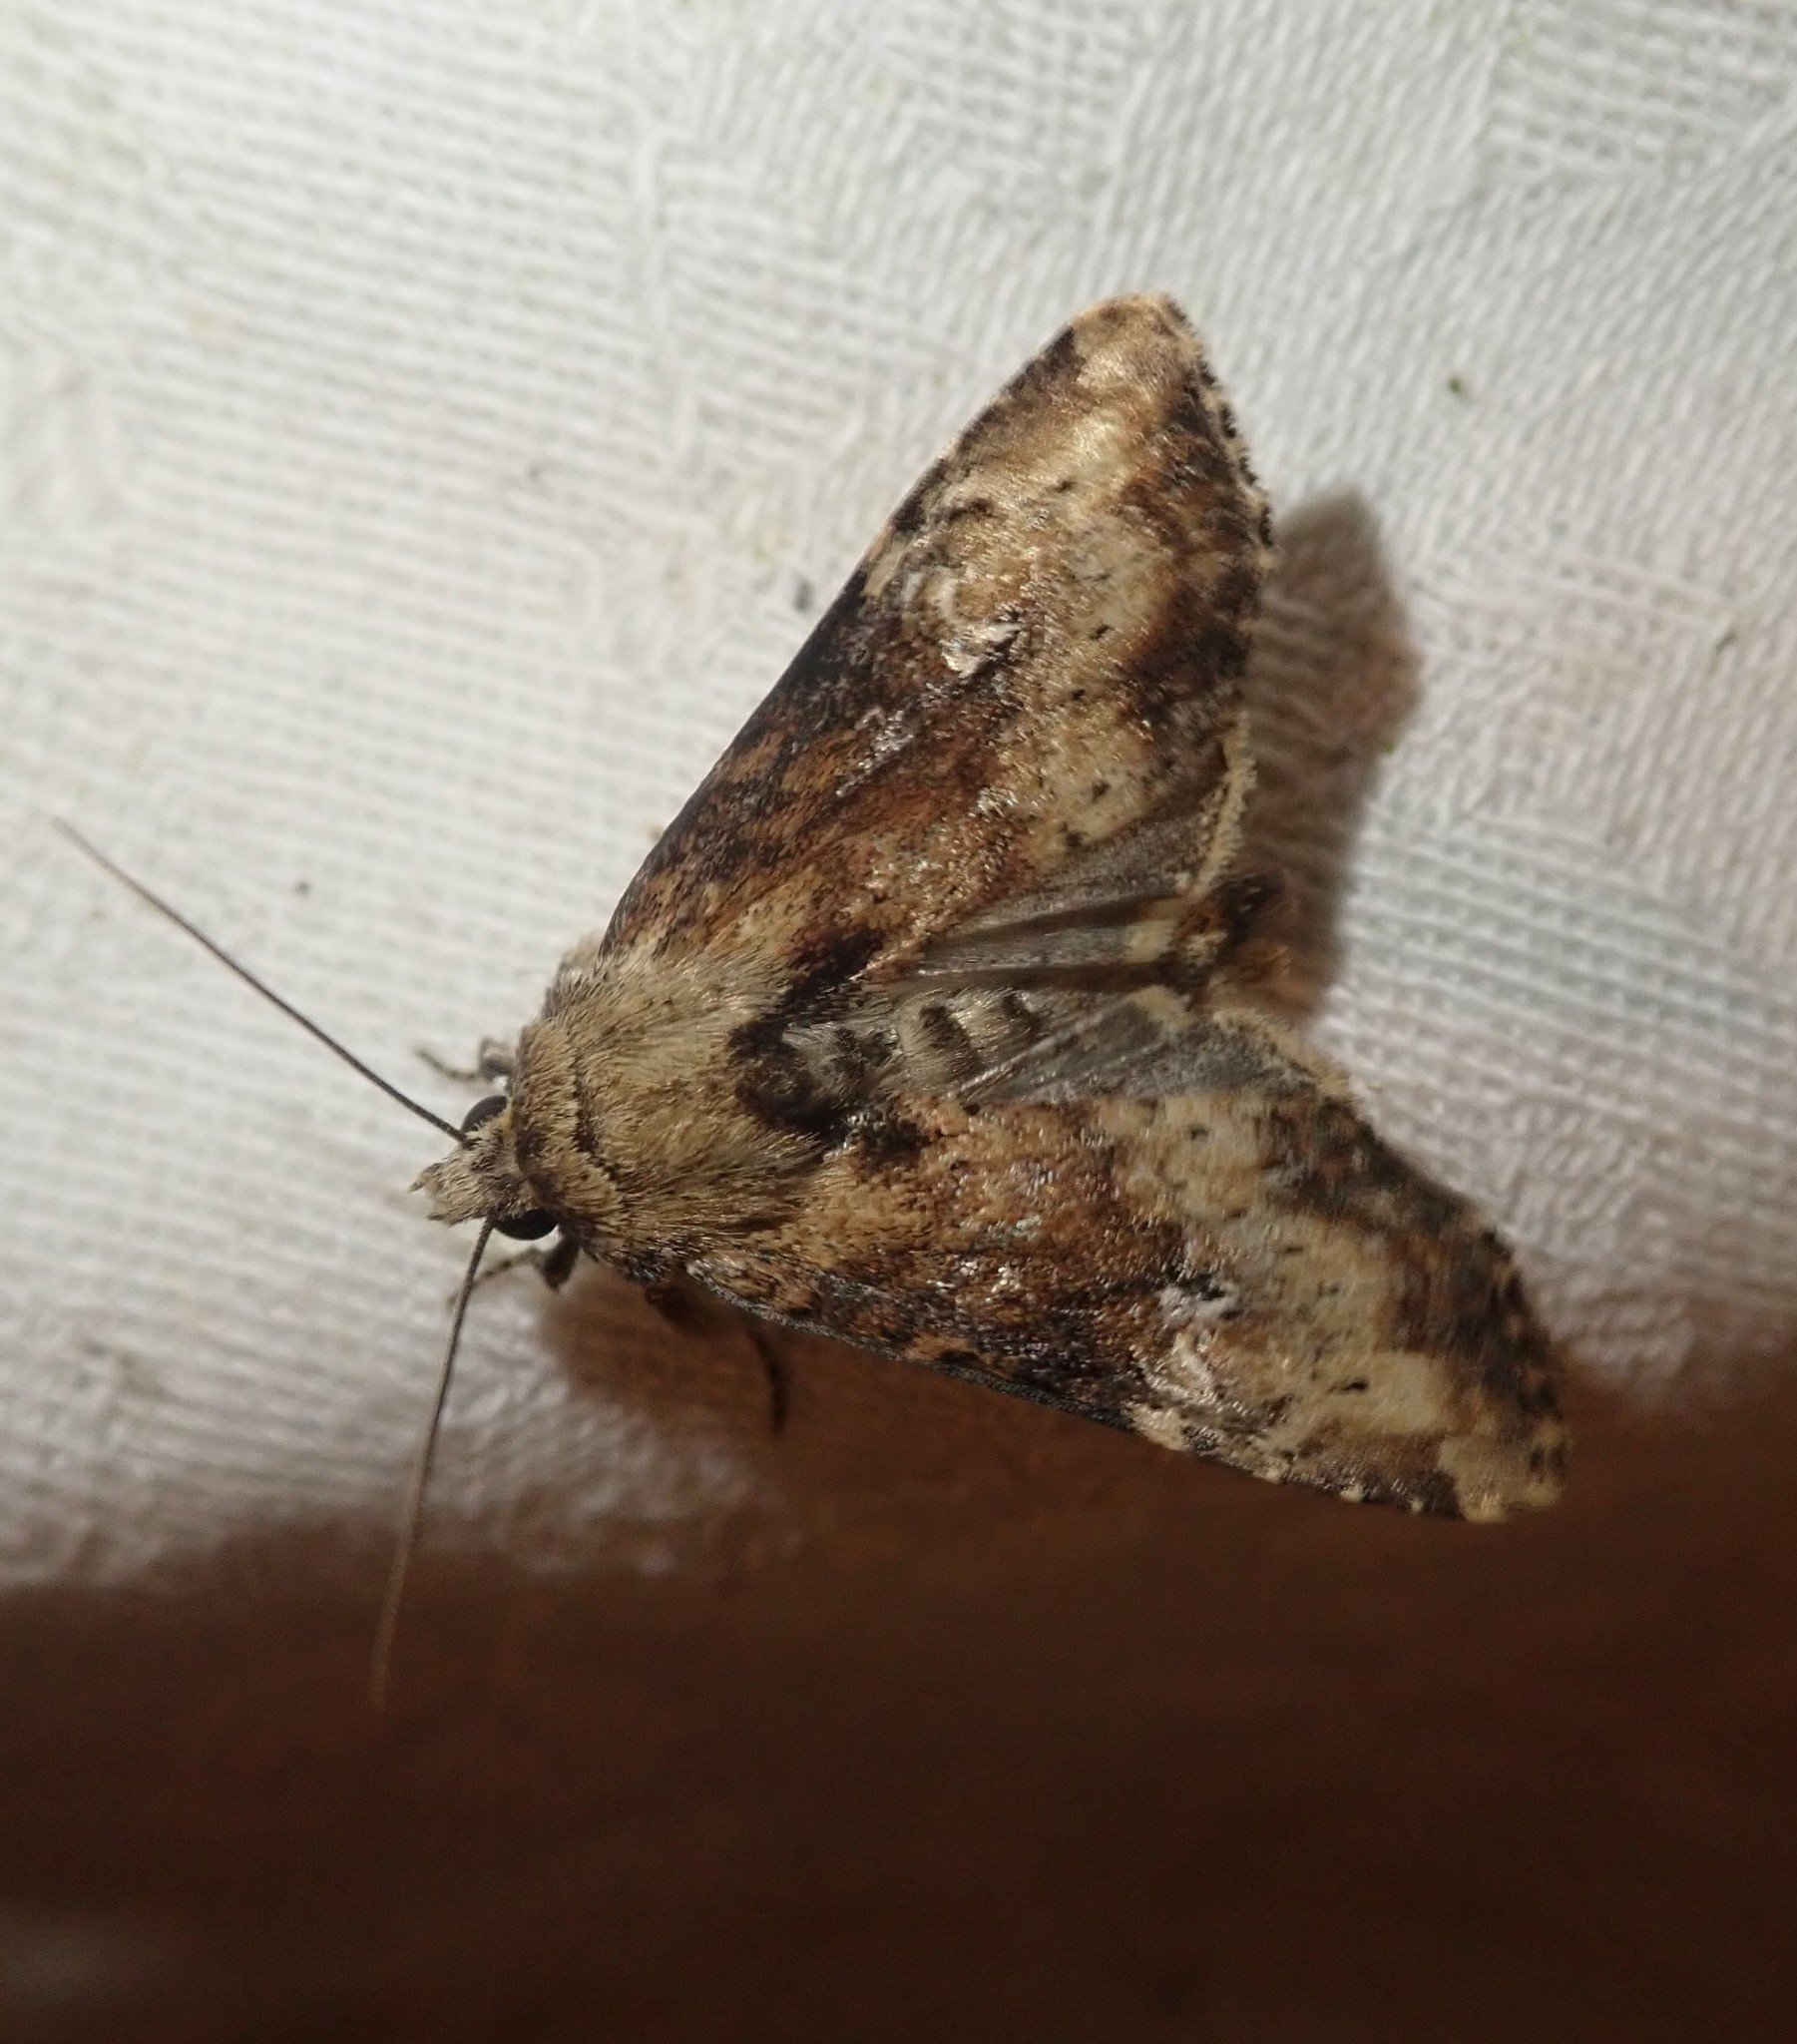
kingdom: Animalia
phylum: Arthropoda
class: Insecta
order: Lepidoptera
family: Noctuidae
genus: Loscopia
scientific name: Loscopia scolopacina
